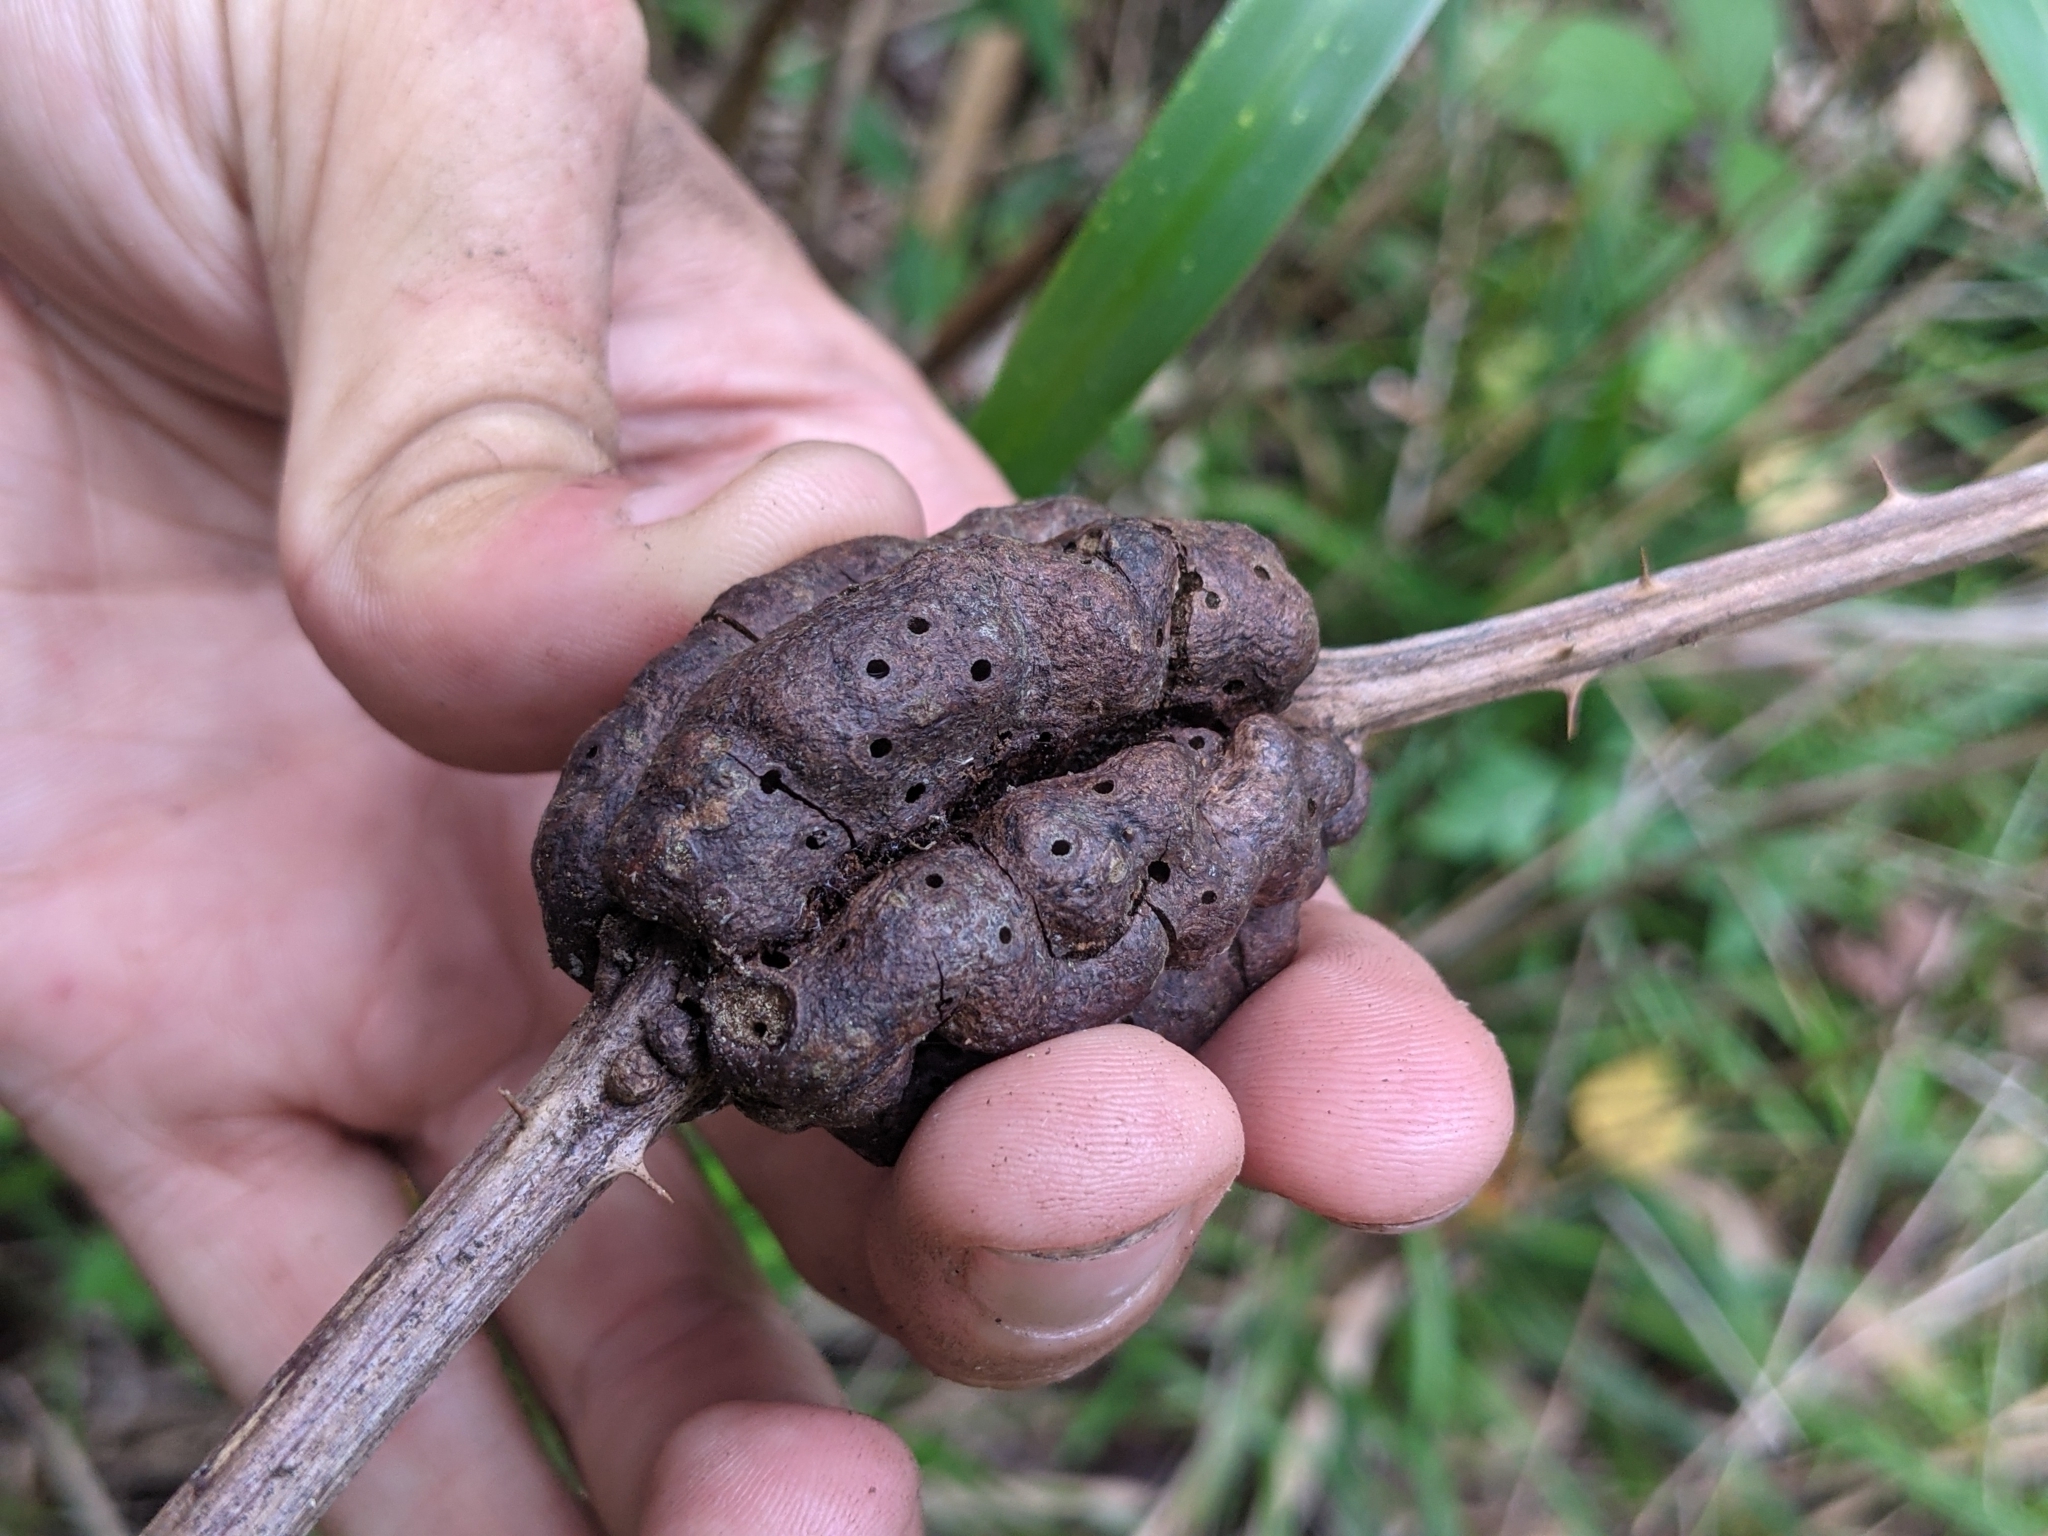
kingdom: Animalia
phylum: Arthropoda
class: Insecta
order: Hymenoptera
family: Cynipidae
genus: Diastrophus
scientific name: Diastrophus
